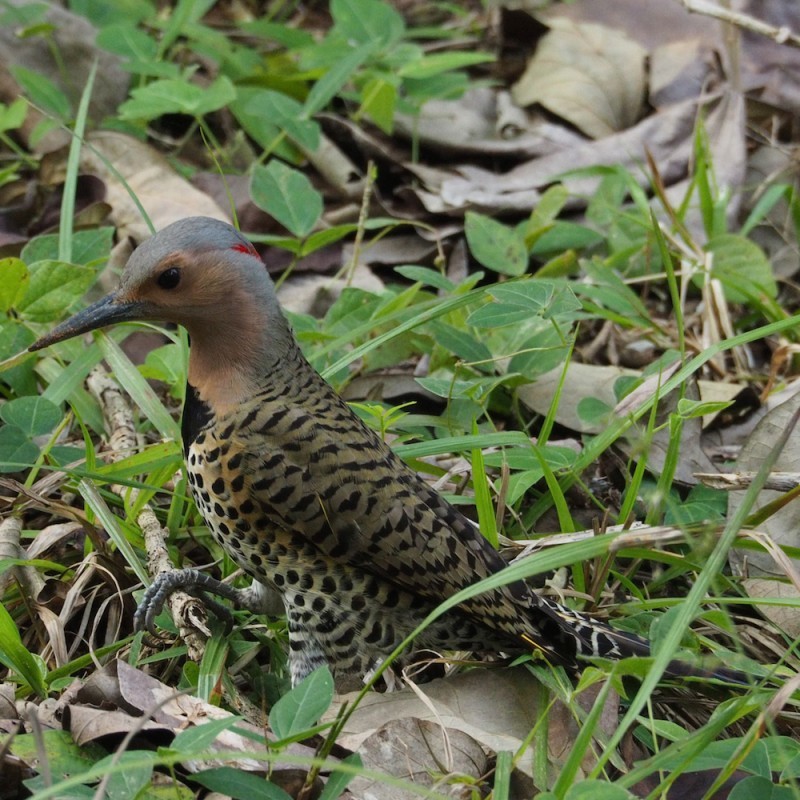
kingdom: Animalia
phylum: Chordata
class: Aves
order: Piciformes
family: Picidae
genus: Colaptes
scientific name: Colaptes auratus
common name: Northern flicker
